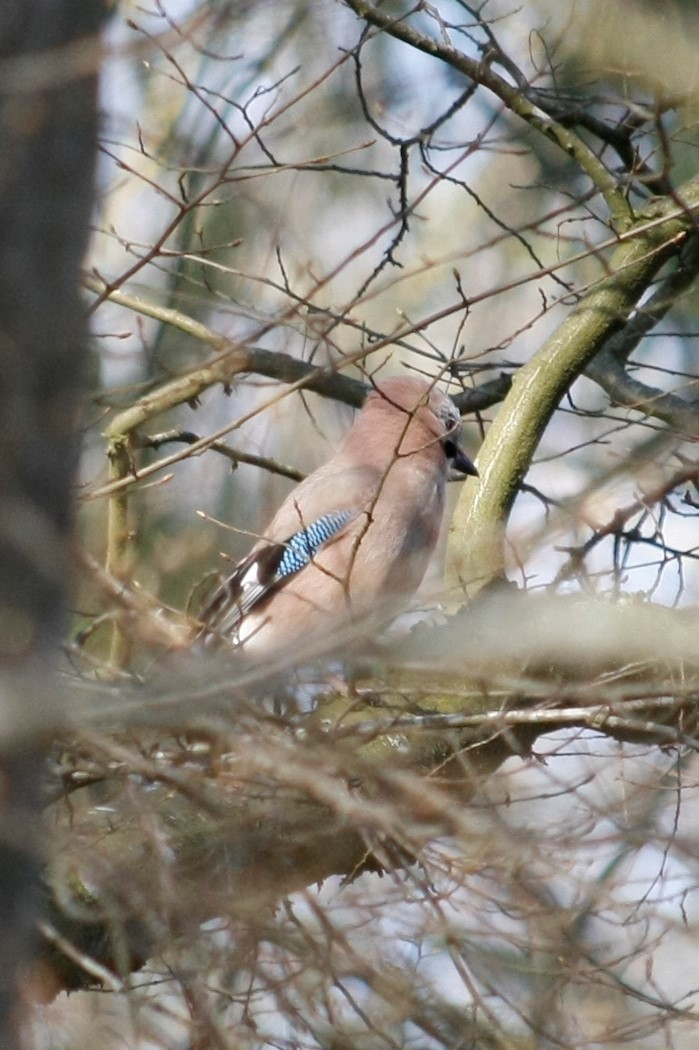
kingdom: Animalia
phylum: Chordata
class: Aves
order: Passeriformes
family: Corvidae
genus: Garrulus
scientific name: Garrulus glandarius
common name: Eurasian jay
